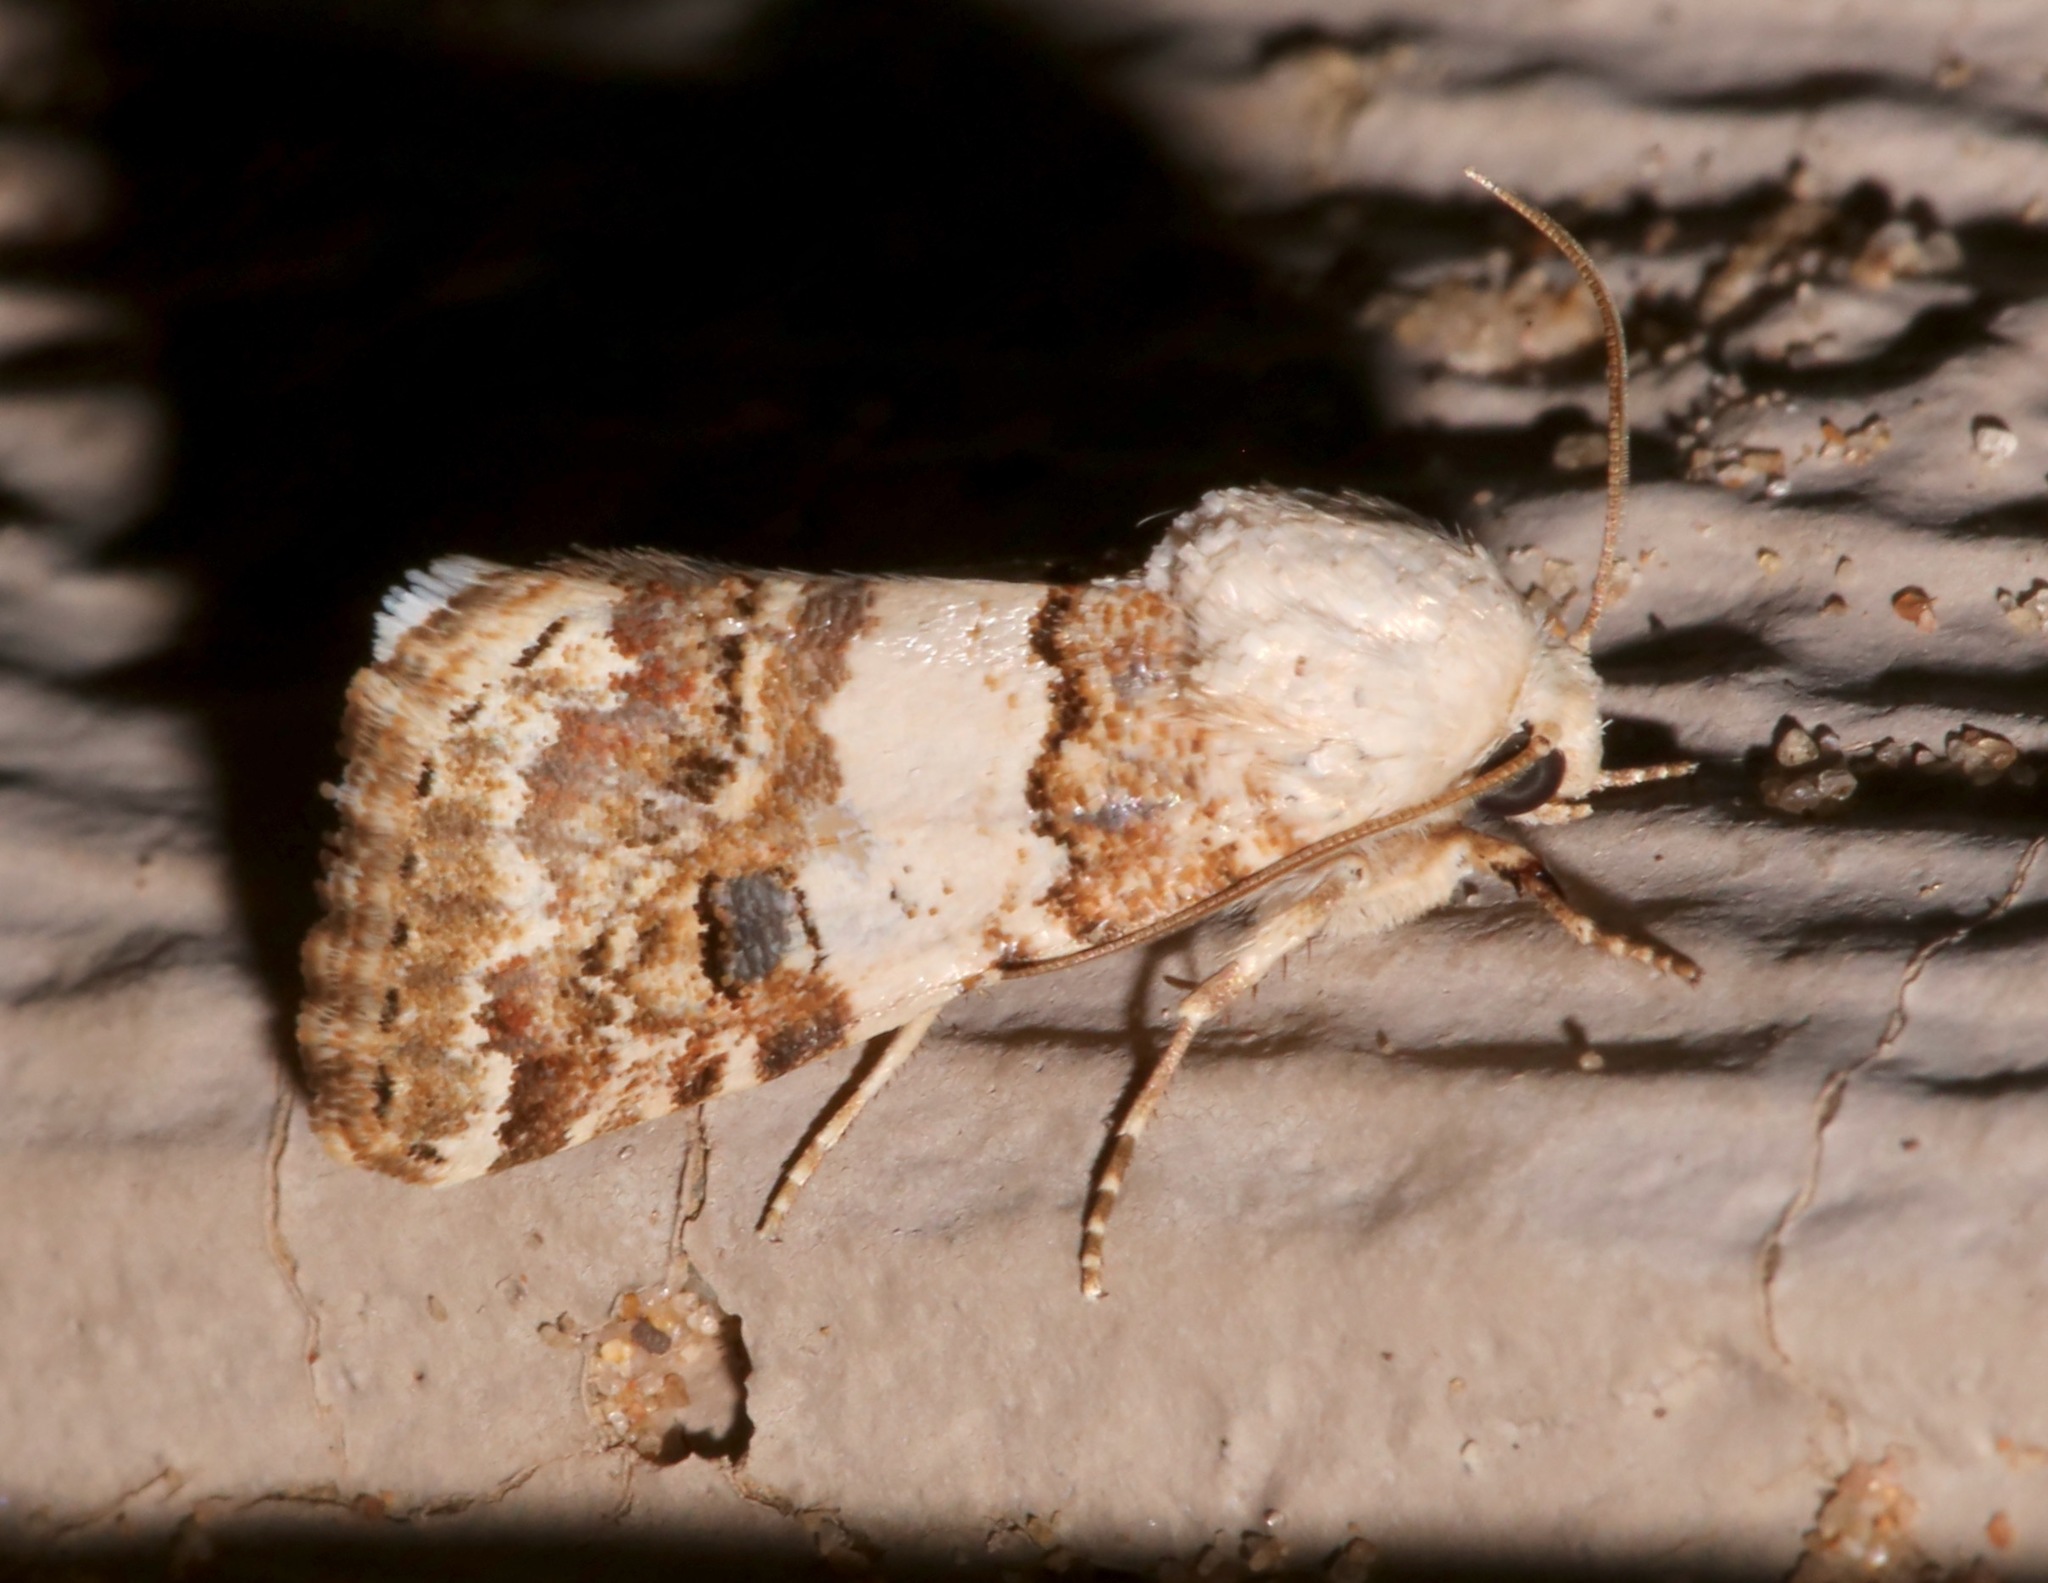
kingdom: Animalia
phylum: Arthropoda
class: Insecta
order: Lepidoptera
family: Noctuidae
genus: Schinia
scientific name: Schinia tertia
